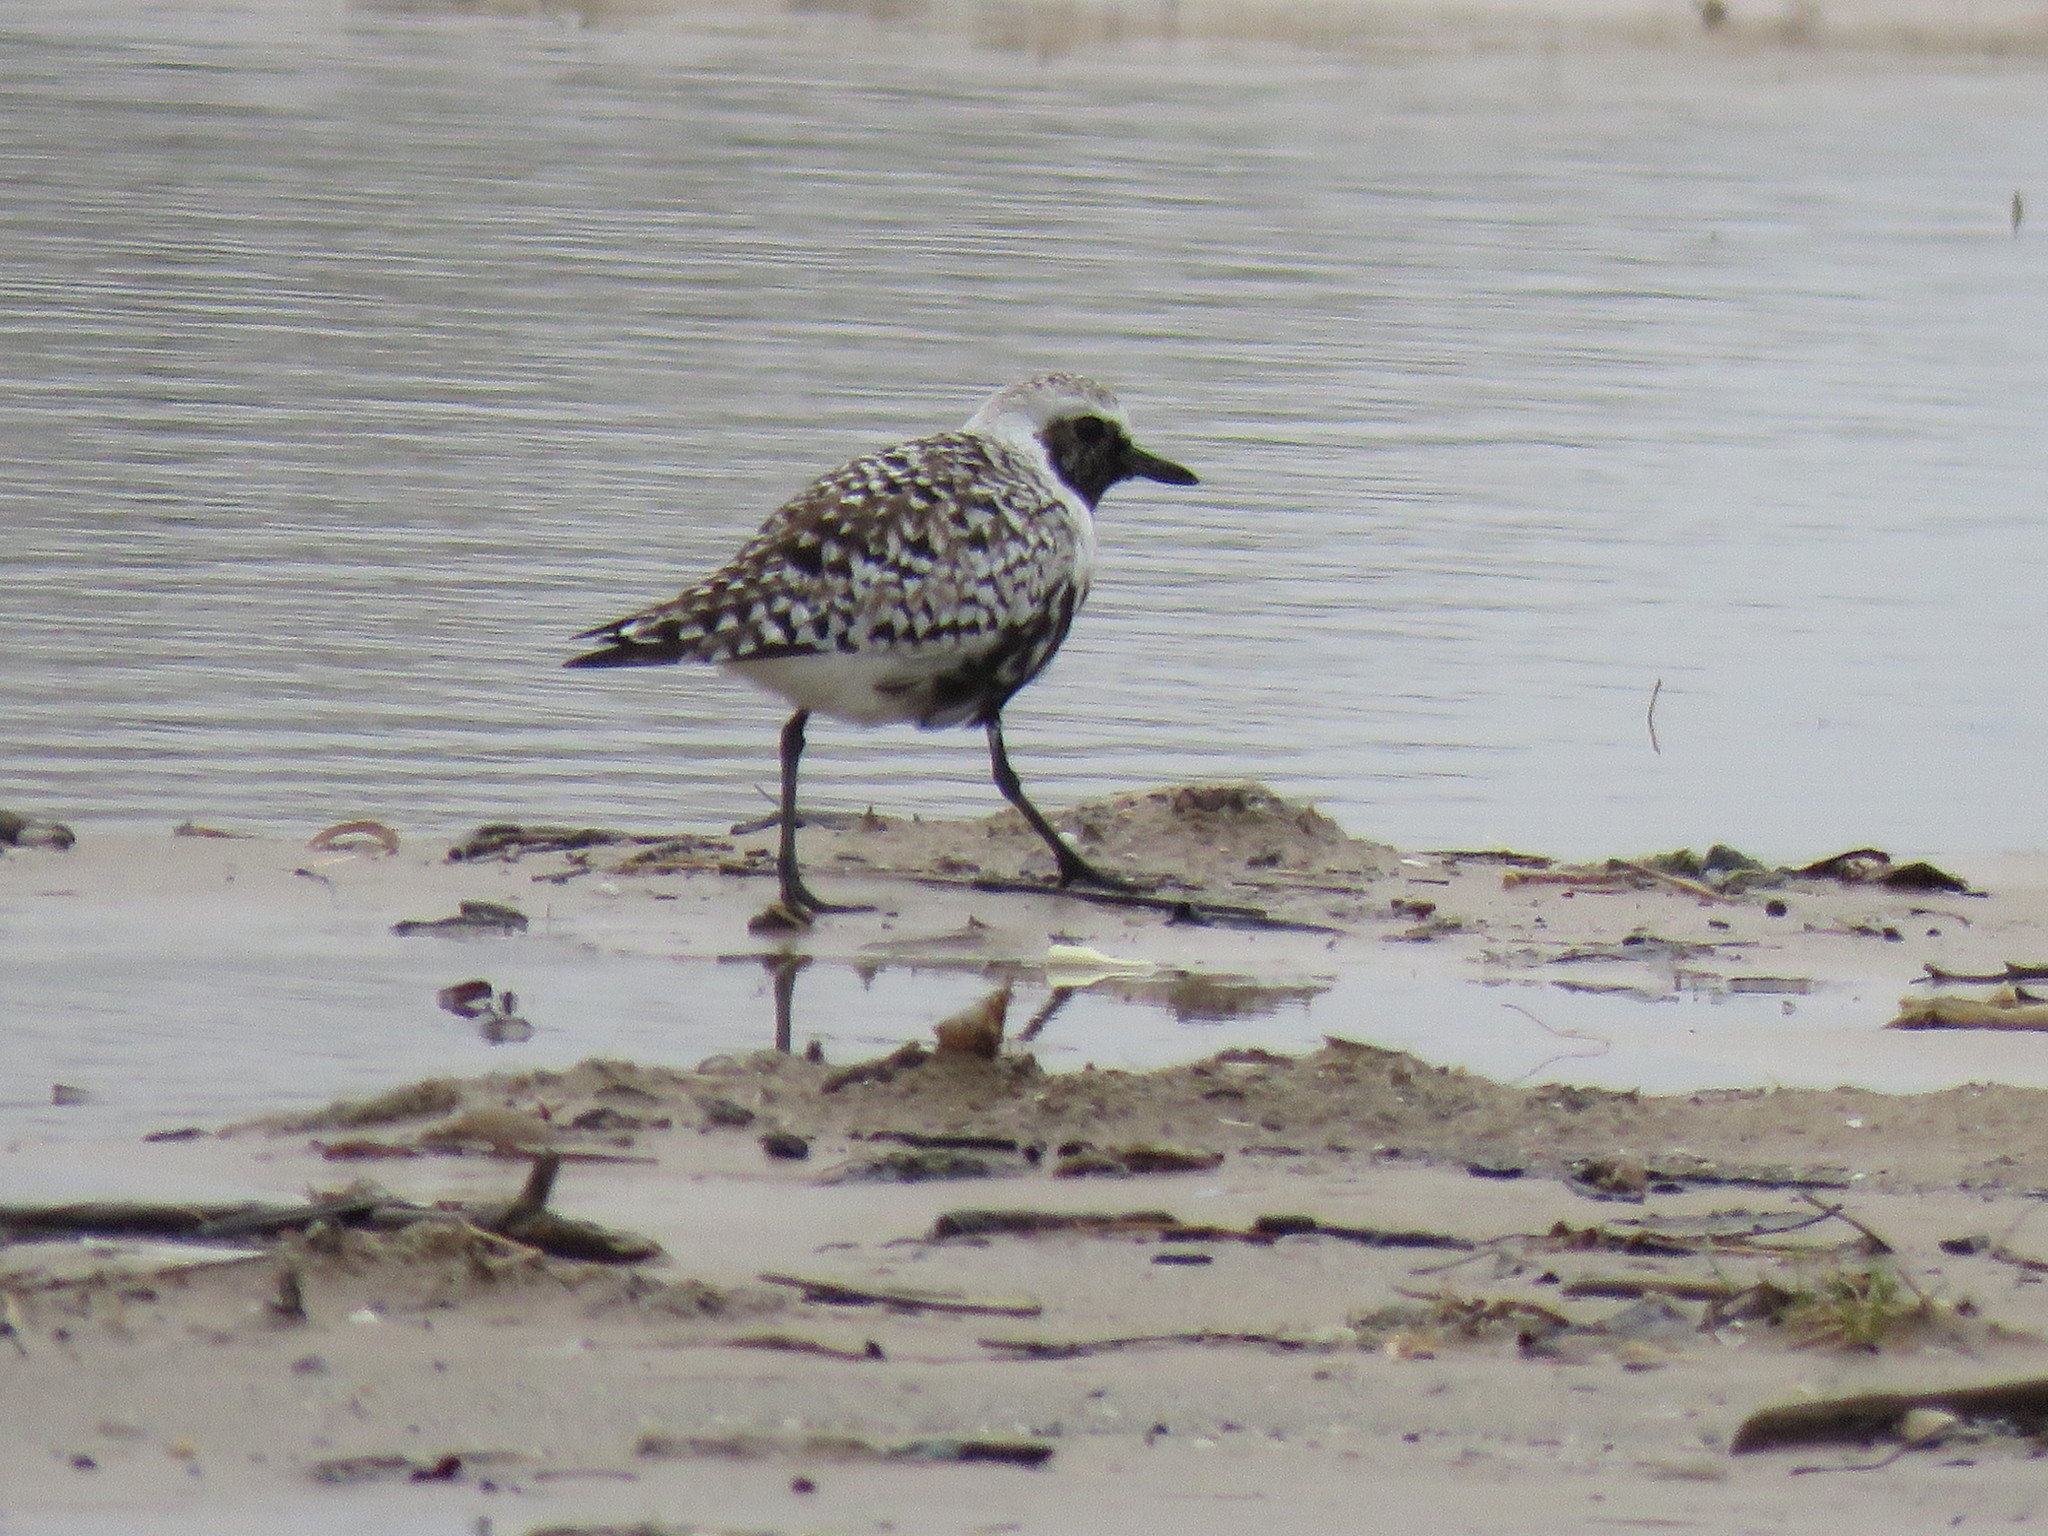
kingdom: Animalia
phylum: Chordata
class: Aves
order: Charadriiformes
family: Charadriidae
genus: Pluvialis
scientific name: Pluvialis squatarola
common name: Grey plover
